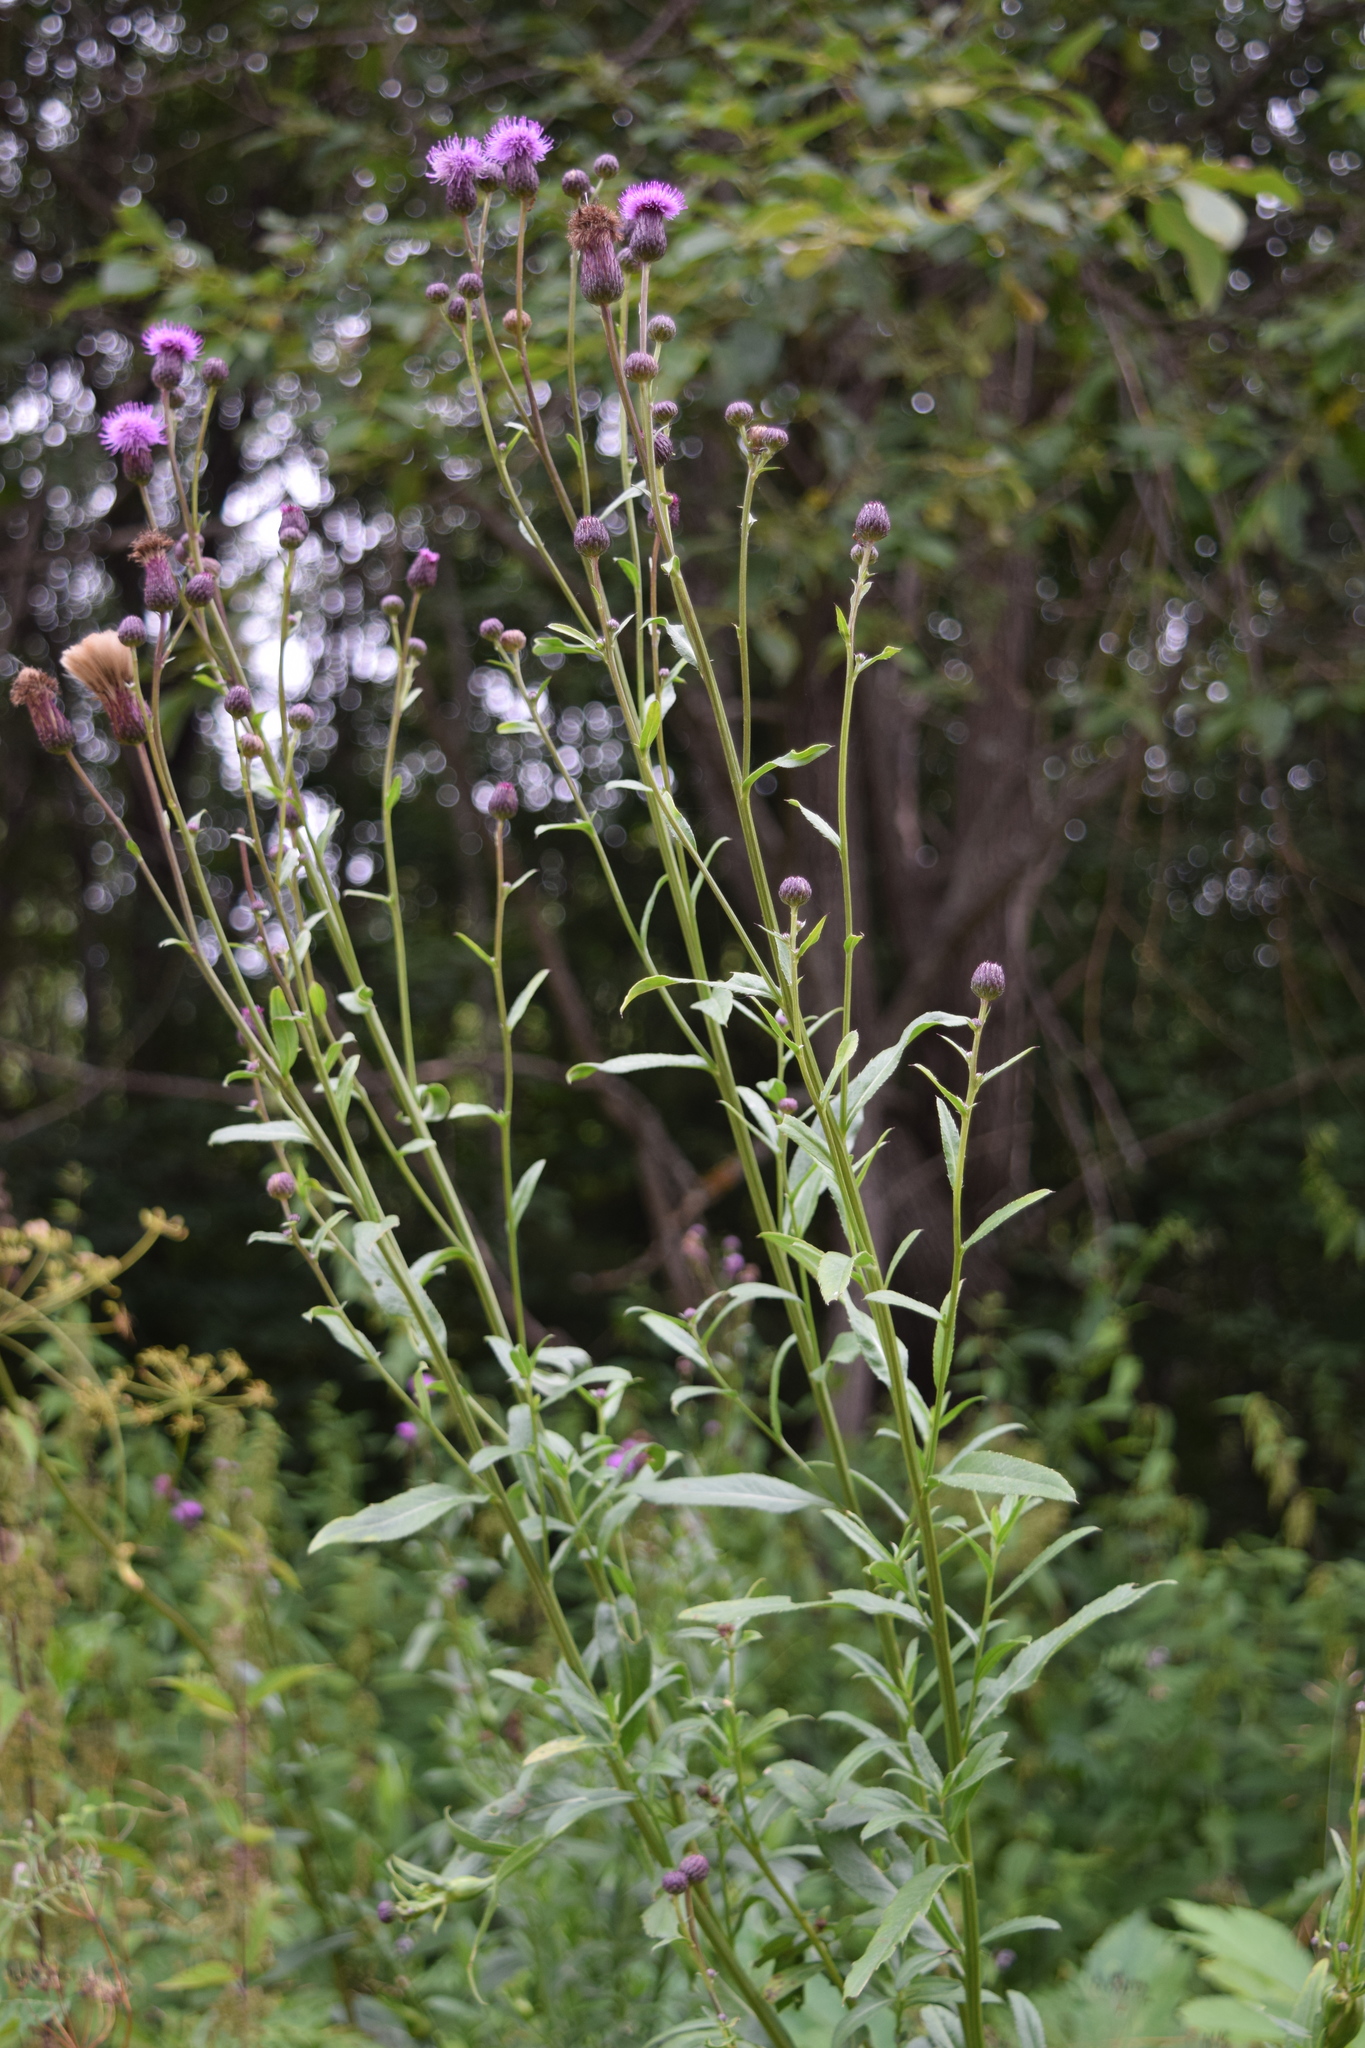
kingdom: Plantae
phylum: Tracheophyta
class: Magnoliopsida
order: Asterales
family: Asteraceae
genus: Cirsium
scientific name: Cirsium arvense
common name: Creeping thistle
